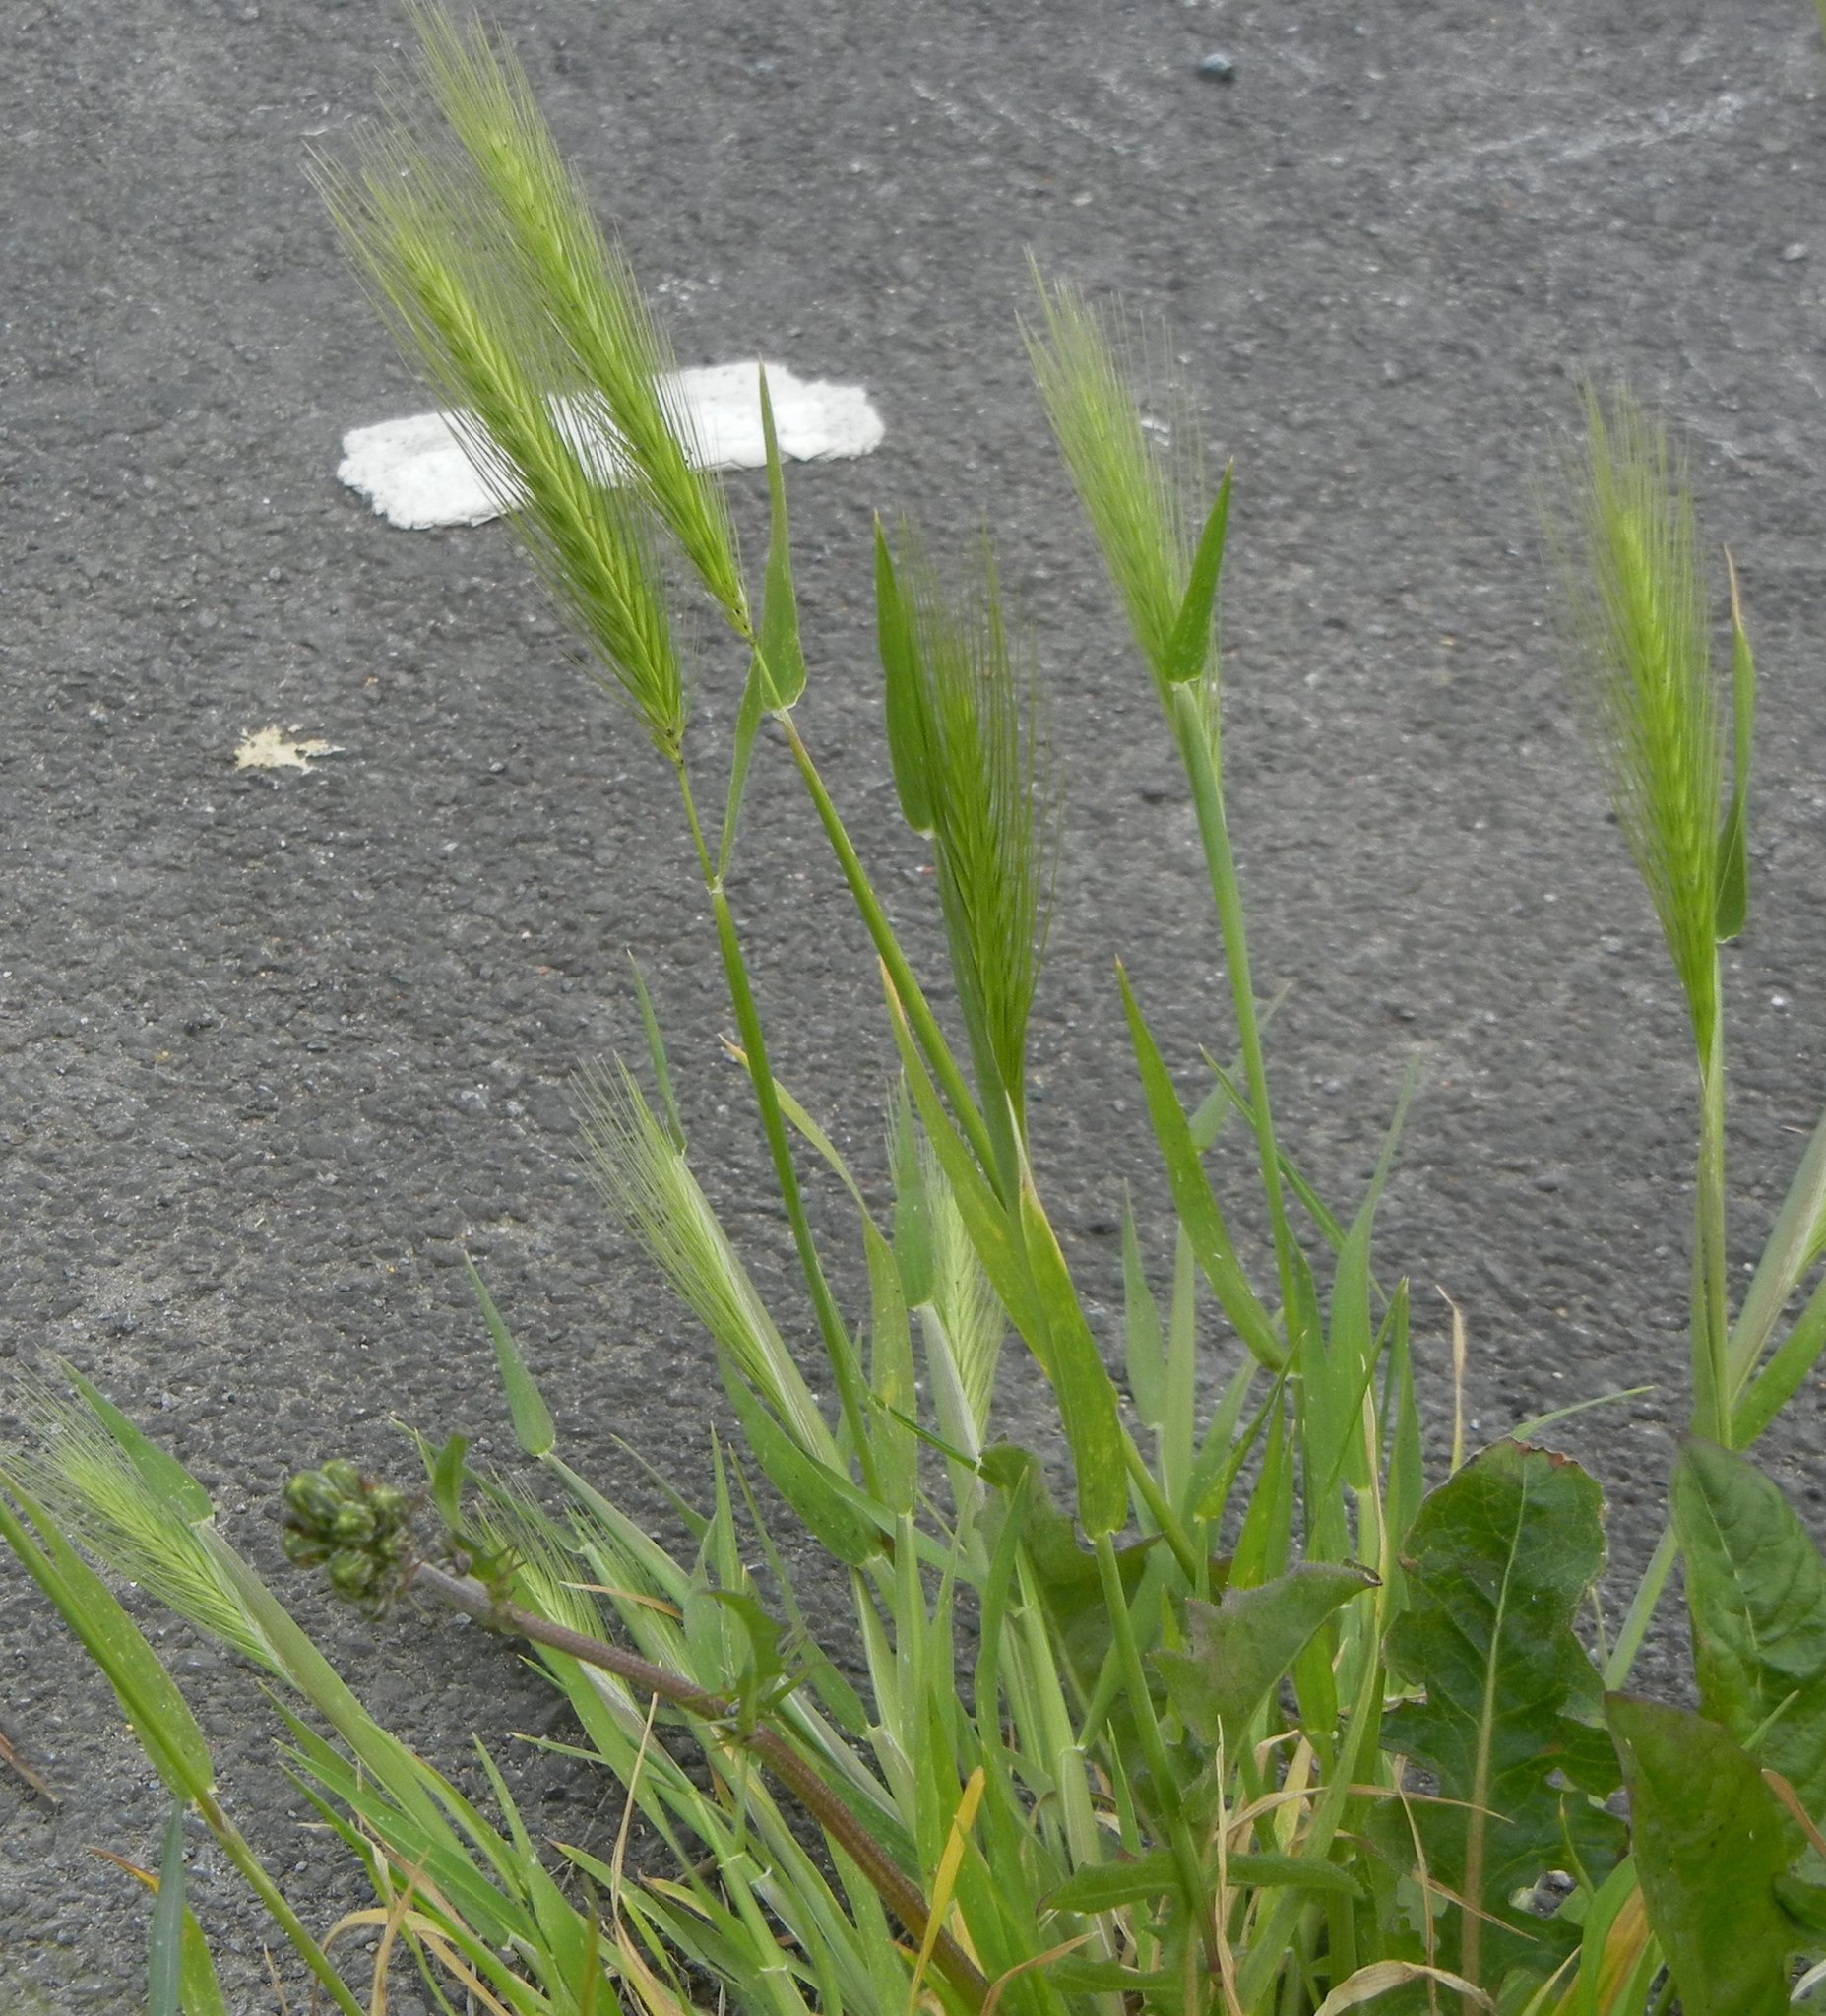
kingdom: Plantae
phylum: Tracheophyta
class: Liliopsida
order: Poales
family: Poaceae
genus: Hordeum
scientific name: Hordeum murinum
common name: Wall barley
